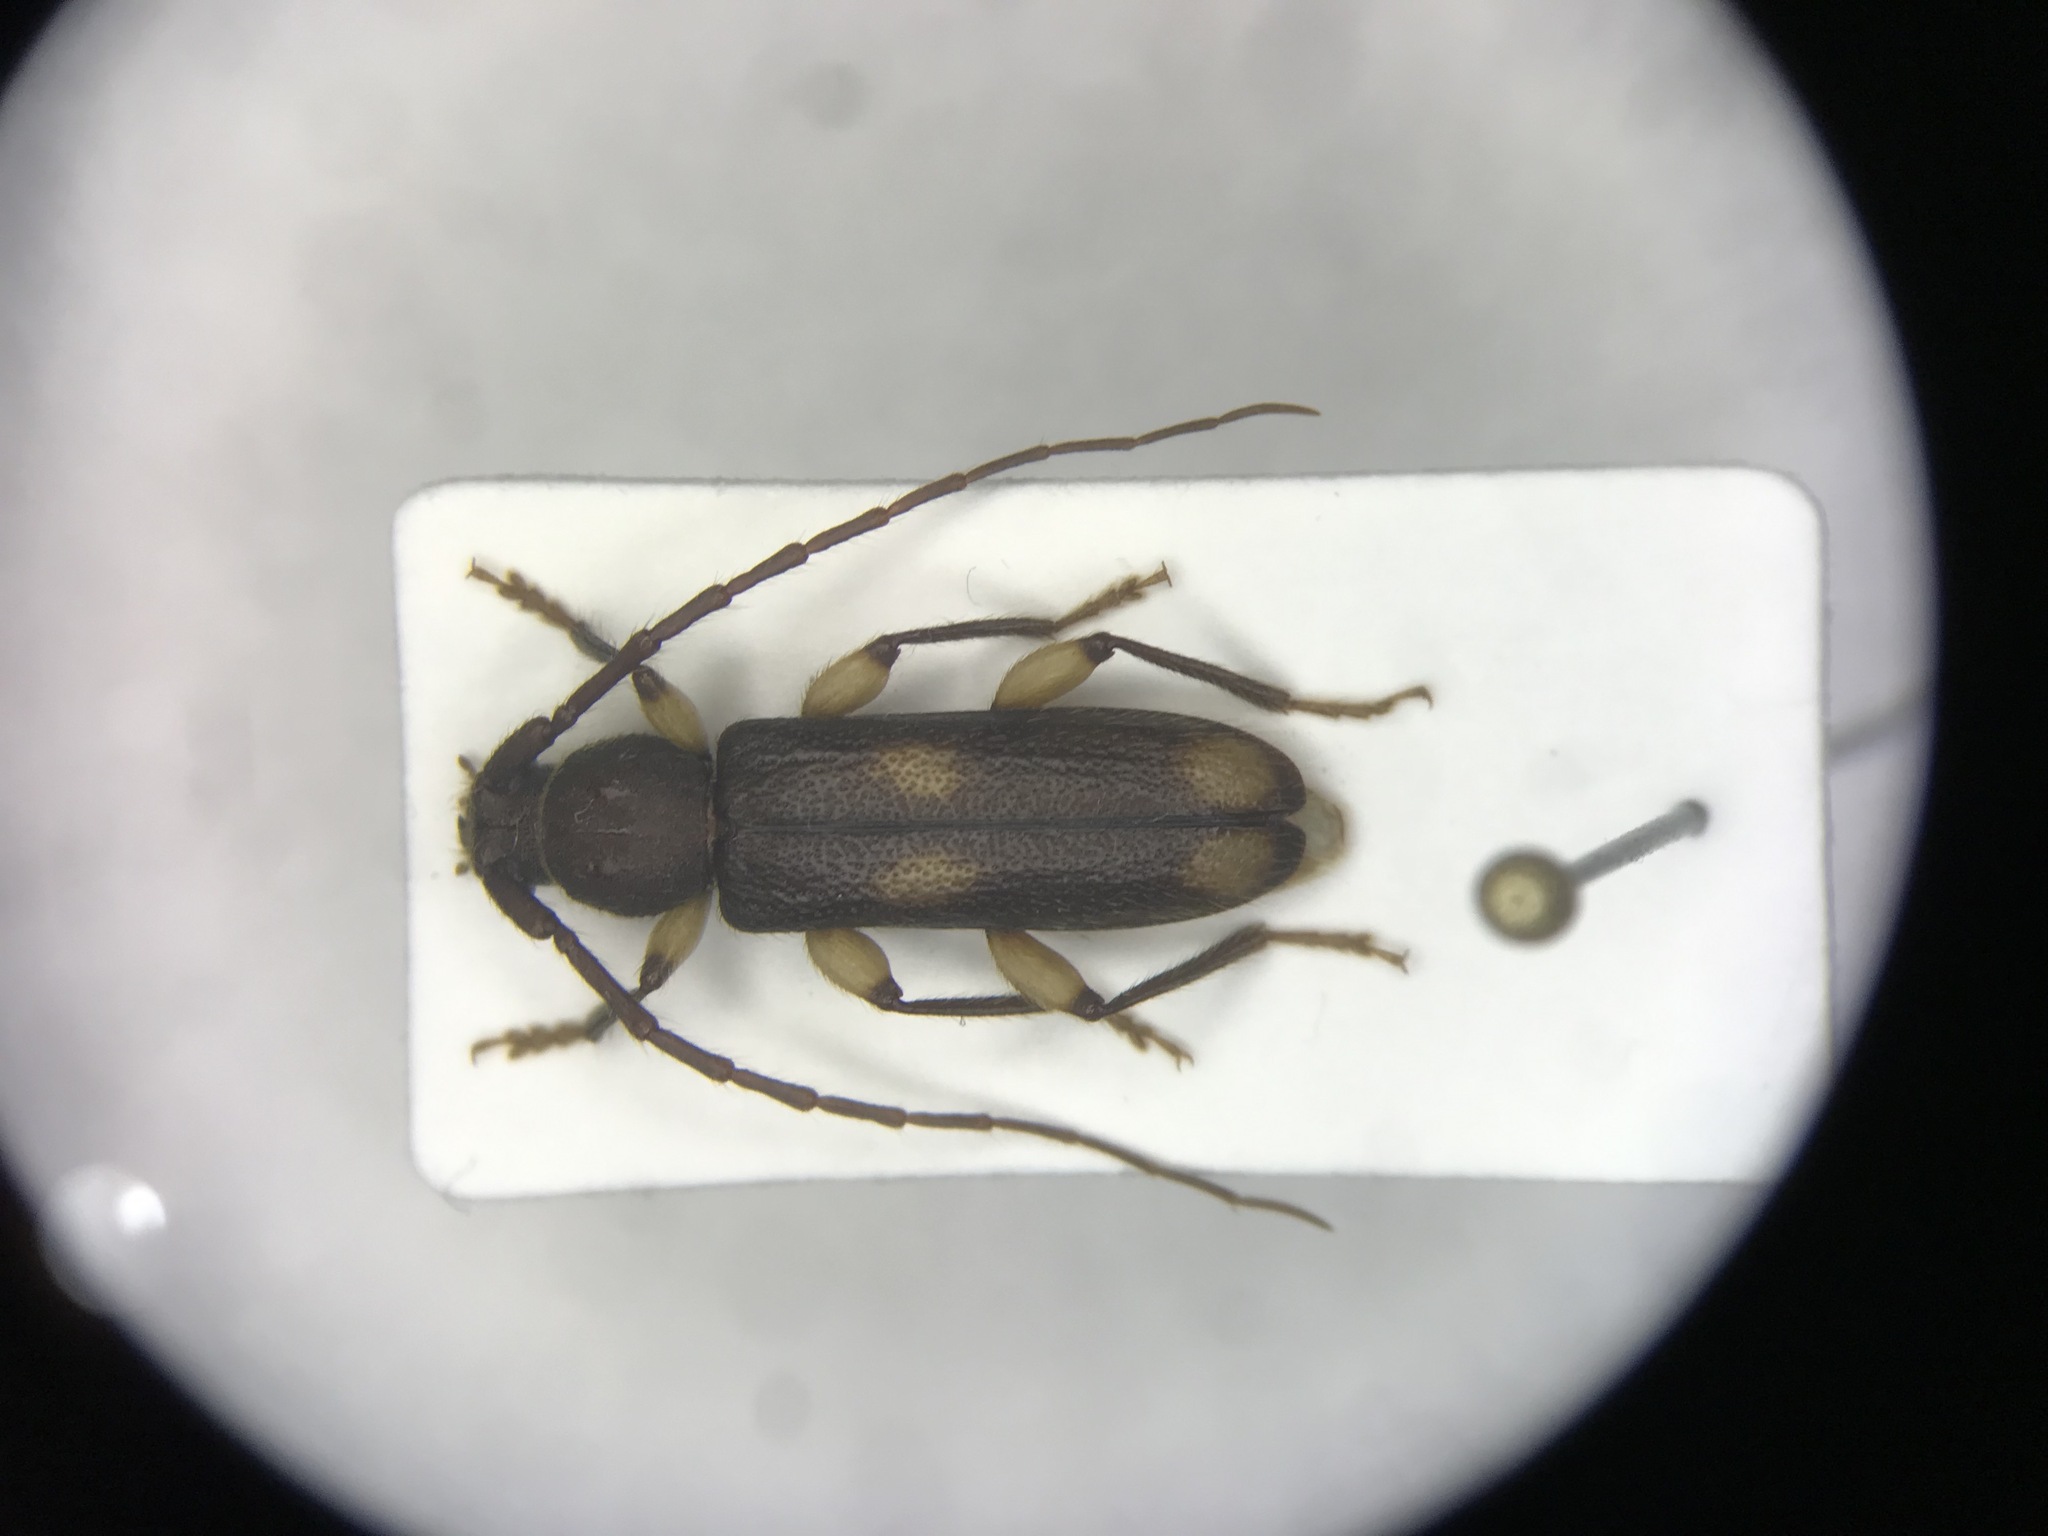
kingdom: Animalia
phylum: Arthropoda
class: Insecta
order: Coleoptera
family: Cerambycidae
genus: Tylonotus
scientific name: Tylonotus bimaculatus
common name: Ash and privet borer
